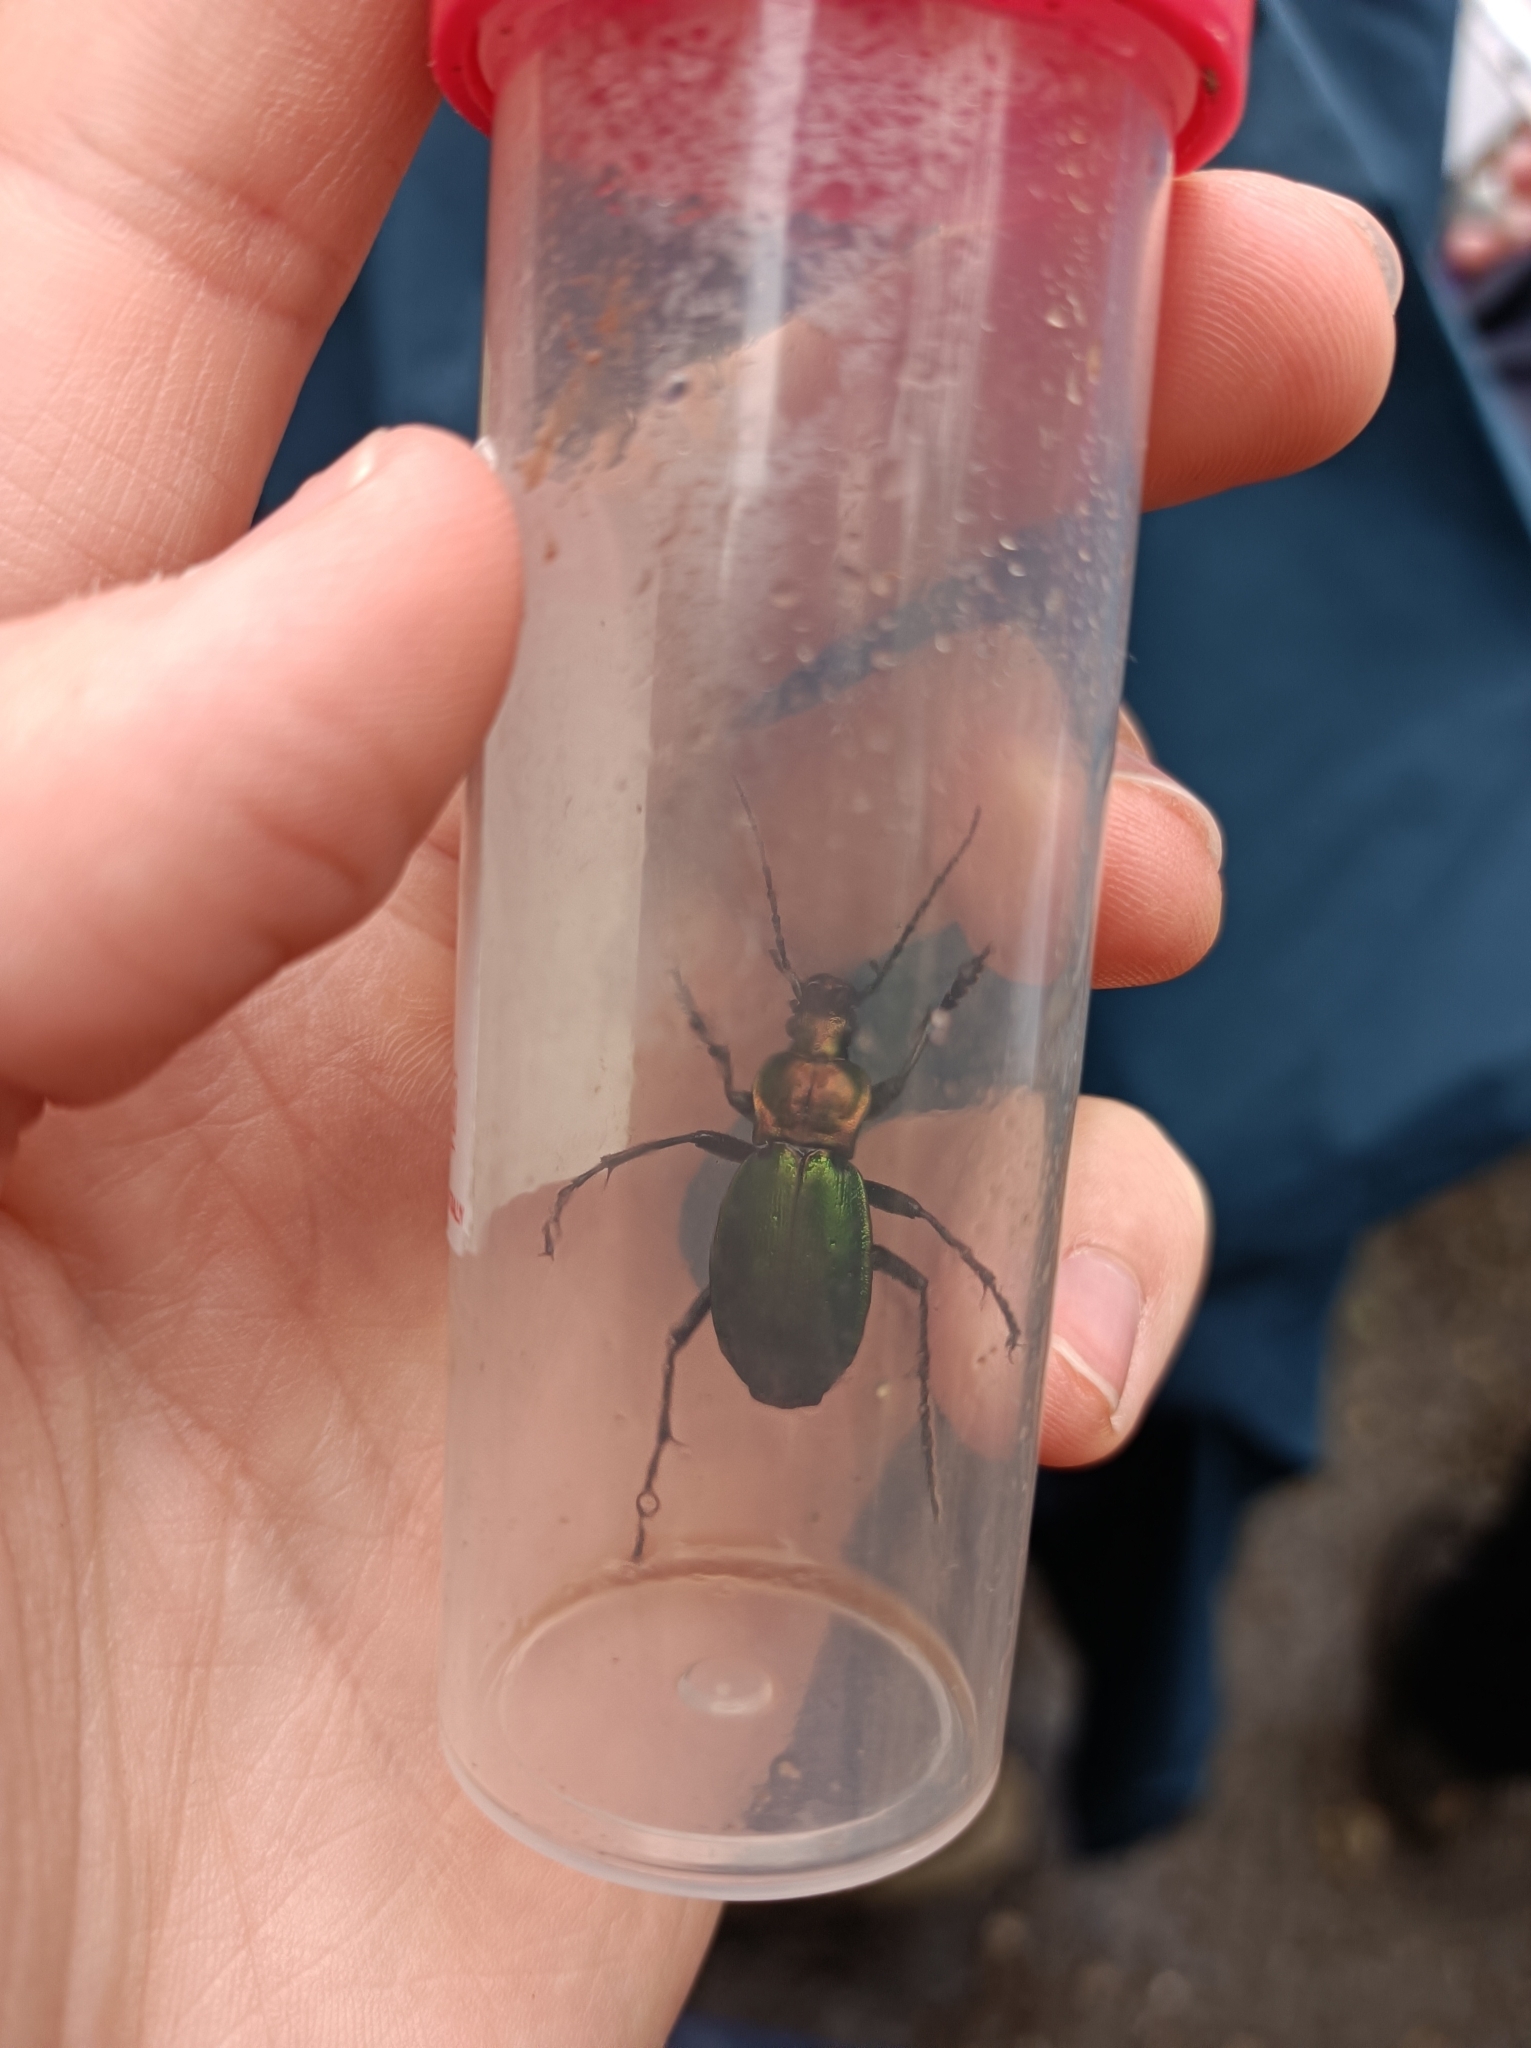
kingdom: Animalia
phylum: Arthropoda
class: Insecta
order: Coleoptera
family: Carabidae
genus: Carabus
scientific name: Carabus obsoletus
